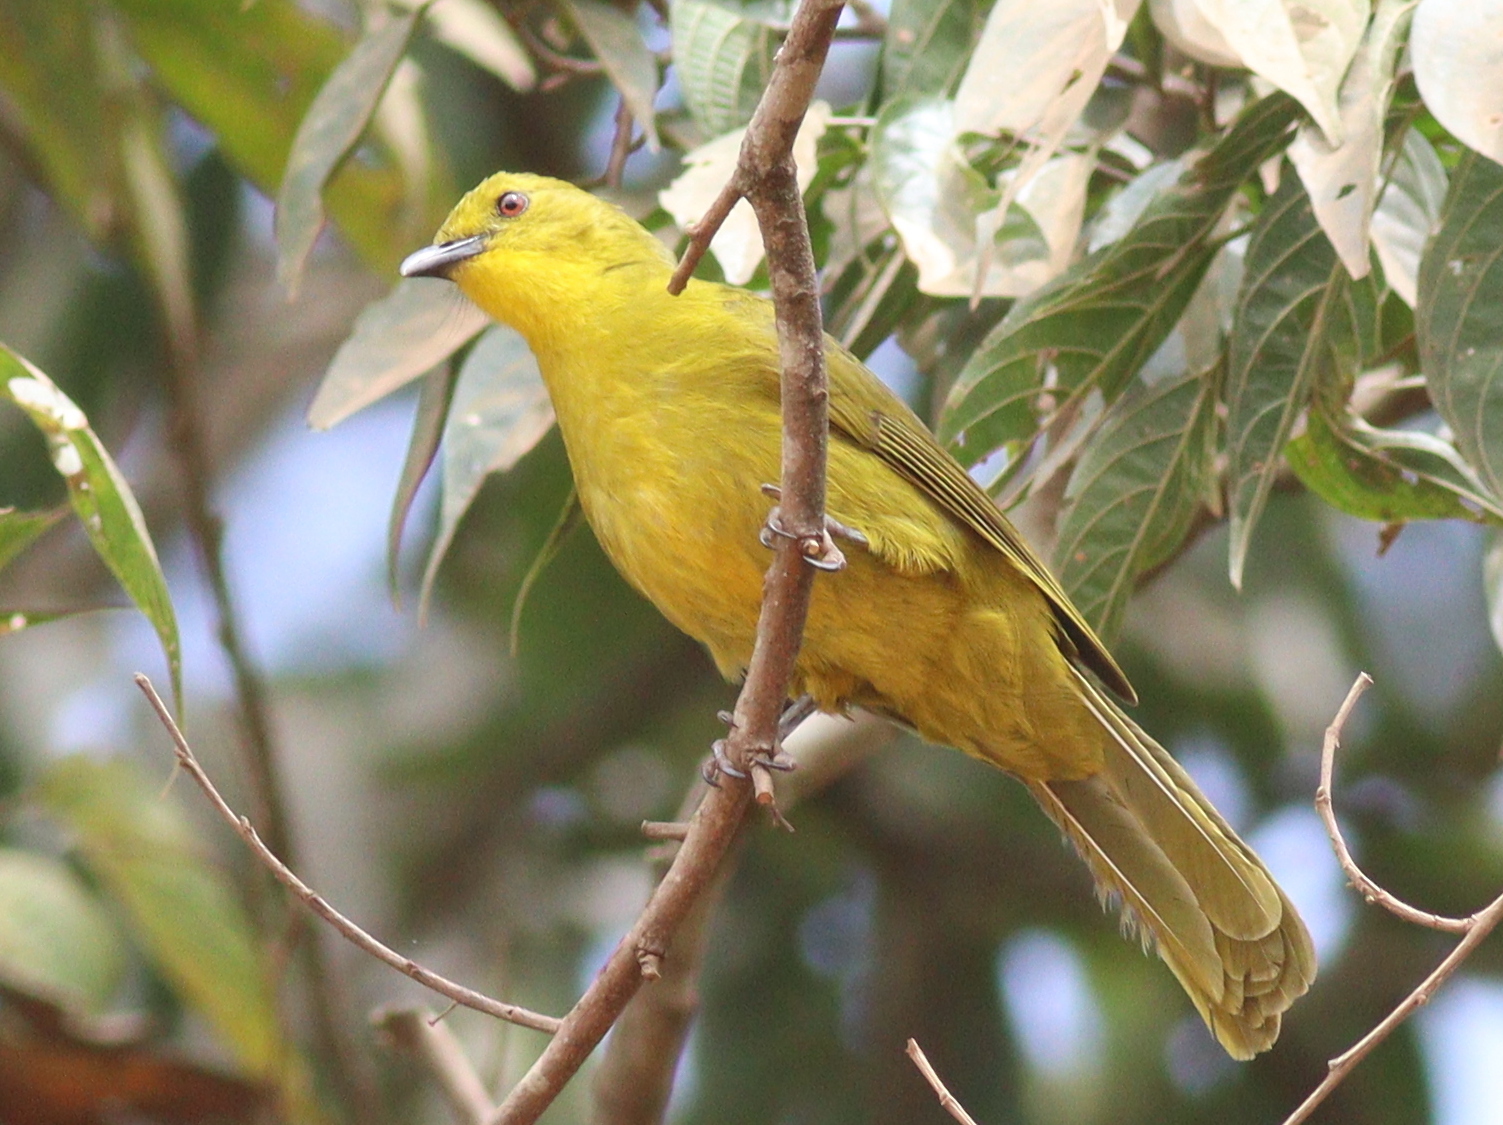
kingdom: Animalia
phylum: Chordata
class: Aves
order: Passeriformes
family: Pycnonotidae
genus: Chlorocichla
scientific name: Chlorocichla laetissima
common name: Joyful greenbul
